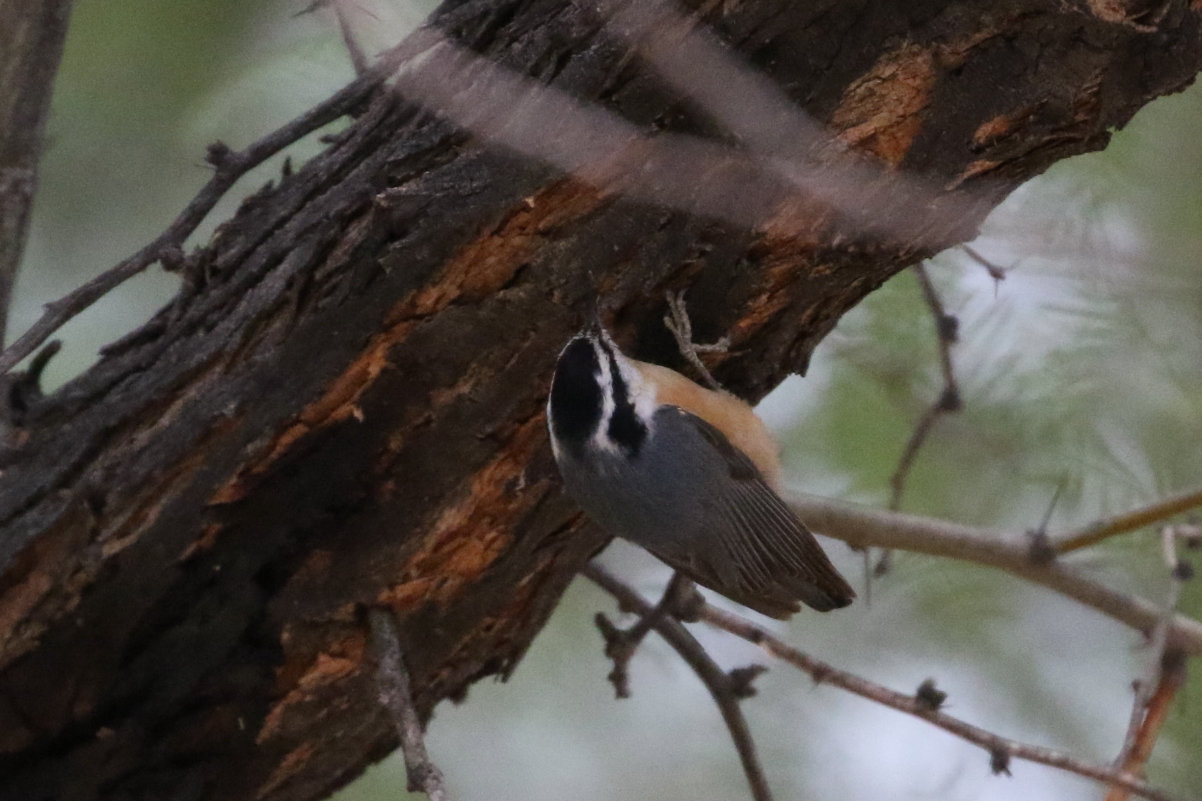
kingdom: Animalia
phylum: Chordata
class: Aves
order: Passeriformes
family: Sittidae
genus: Sitta
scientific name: Sitta canadensis
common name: Red-breasted nuthatch
